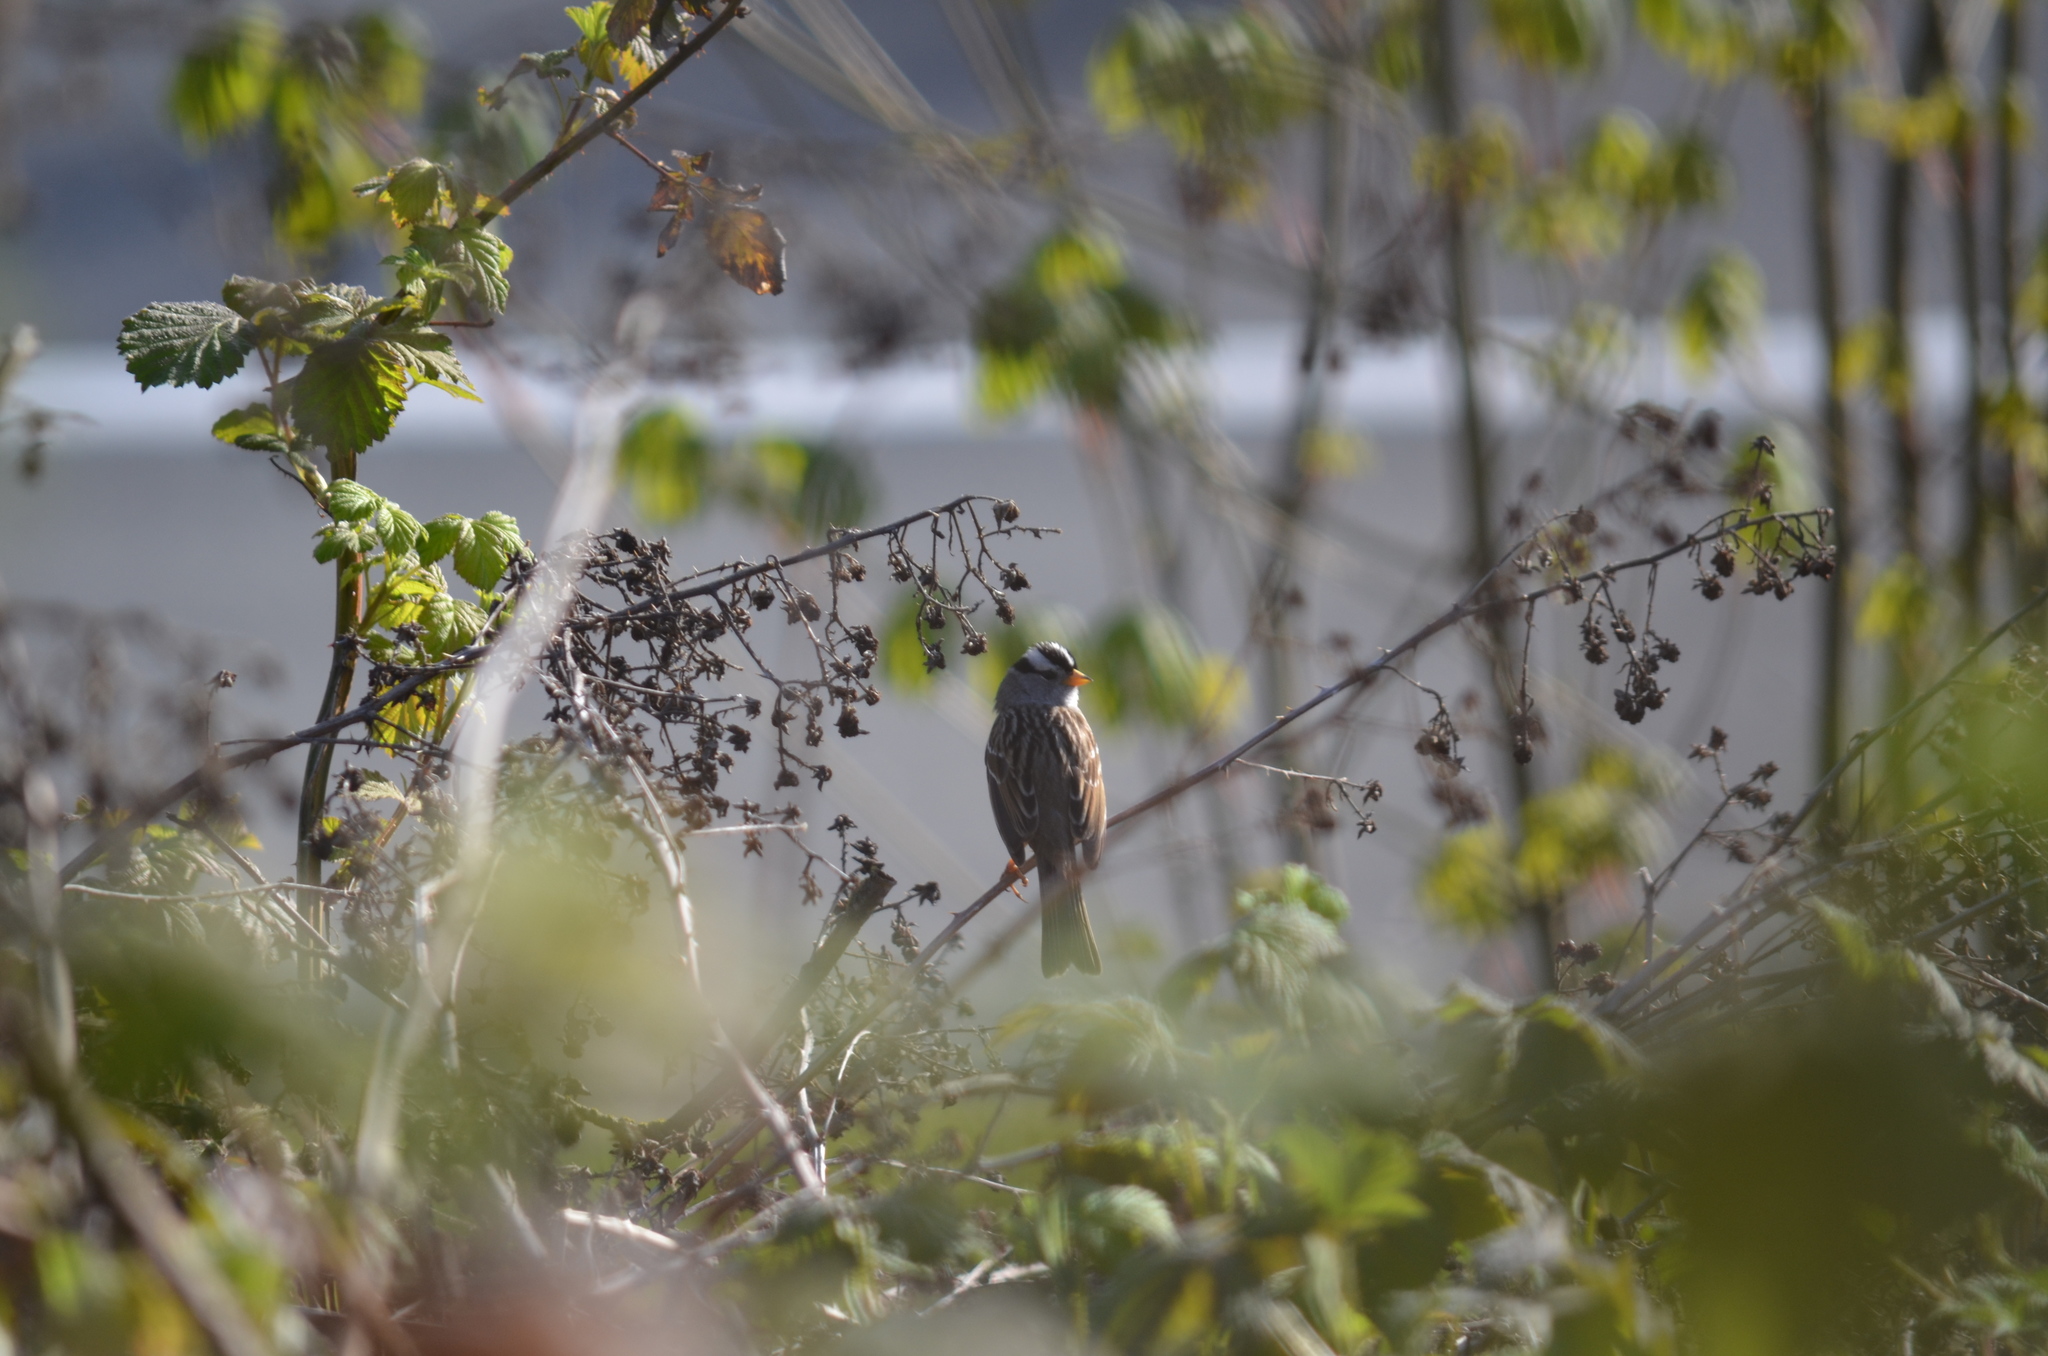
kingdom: Animalia
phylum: Chordata
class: Aves
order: Passeriformes
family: Passerellidae
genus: Zonotrichia
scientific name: Zonotrichia leucophrys
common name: White-crowned sparrow
